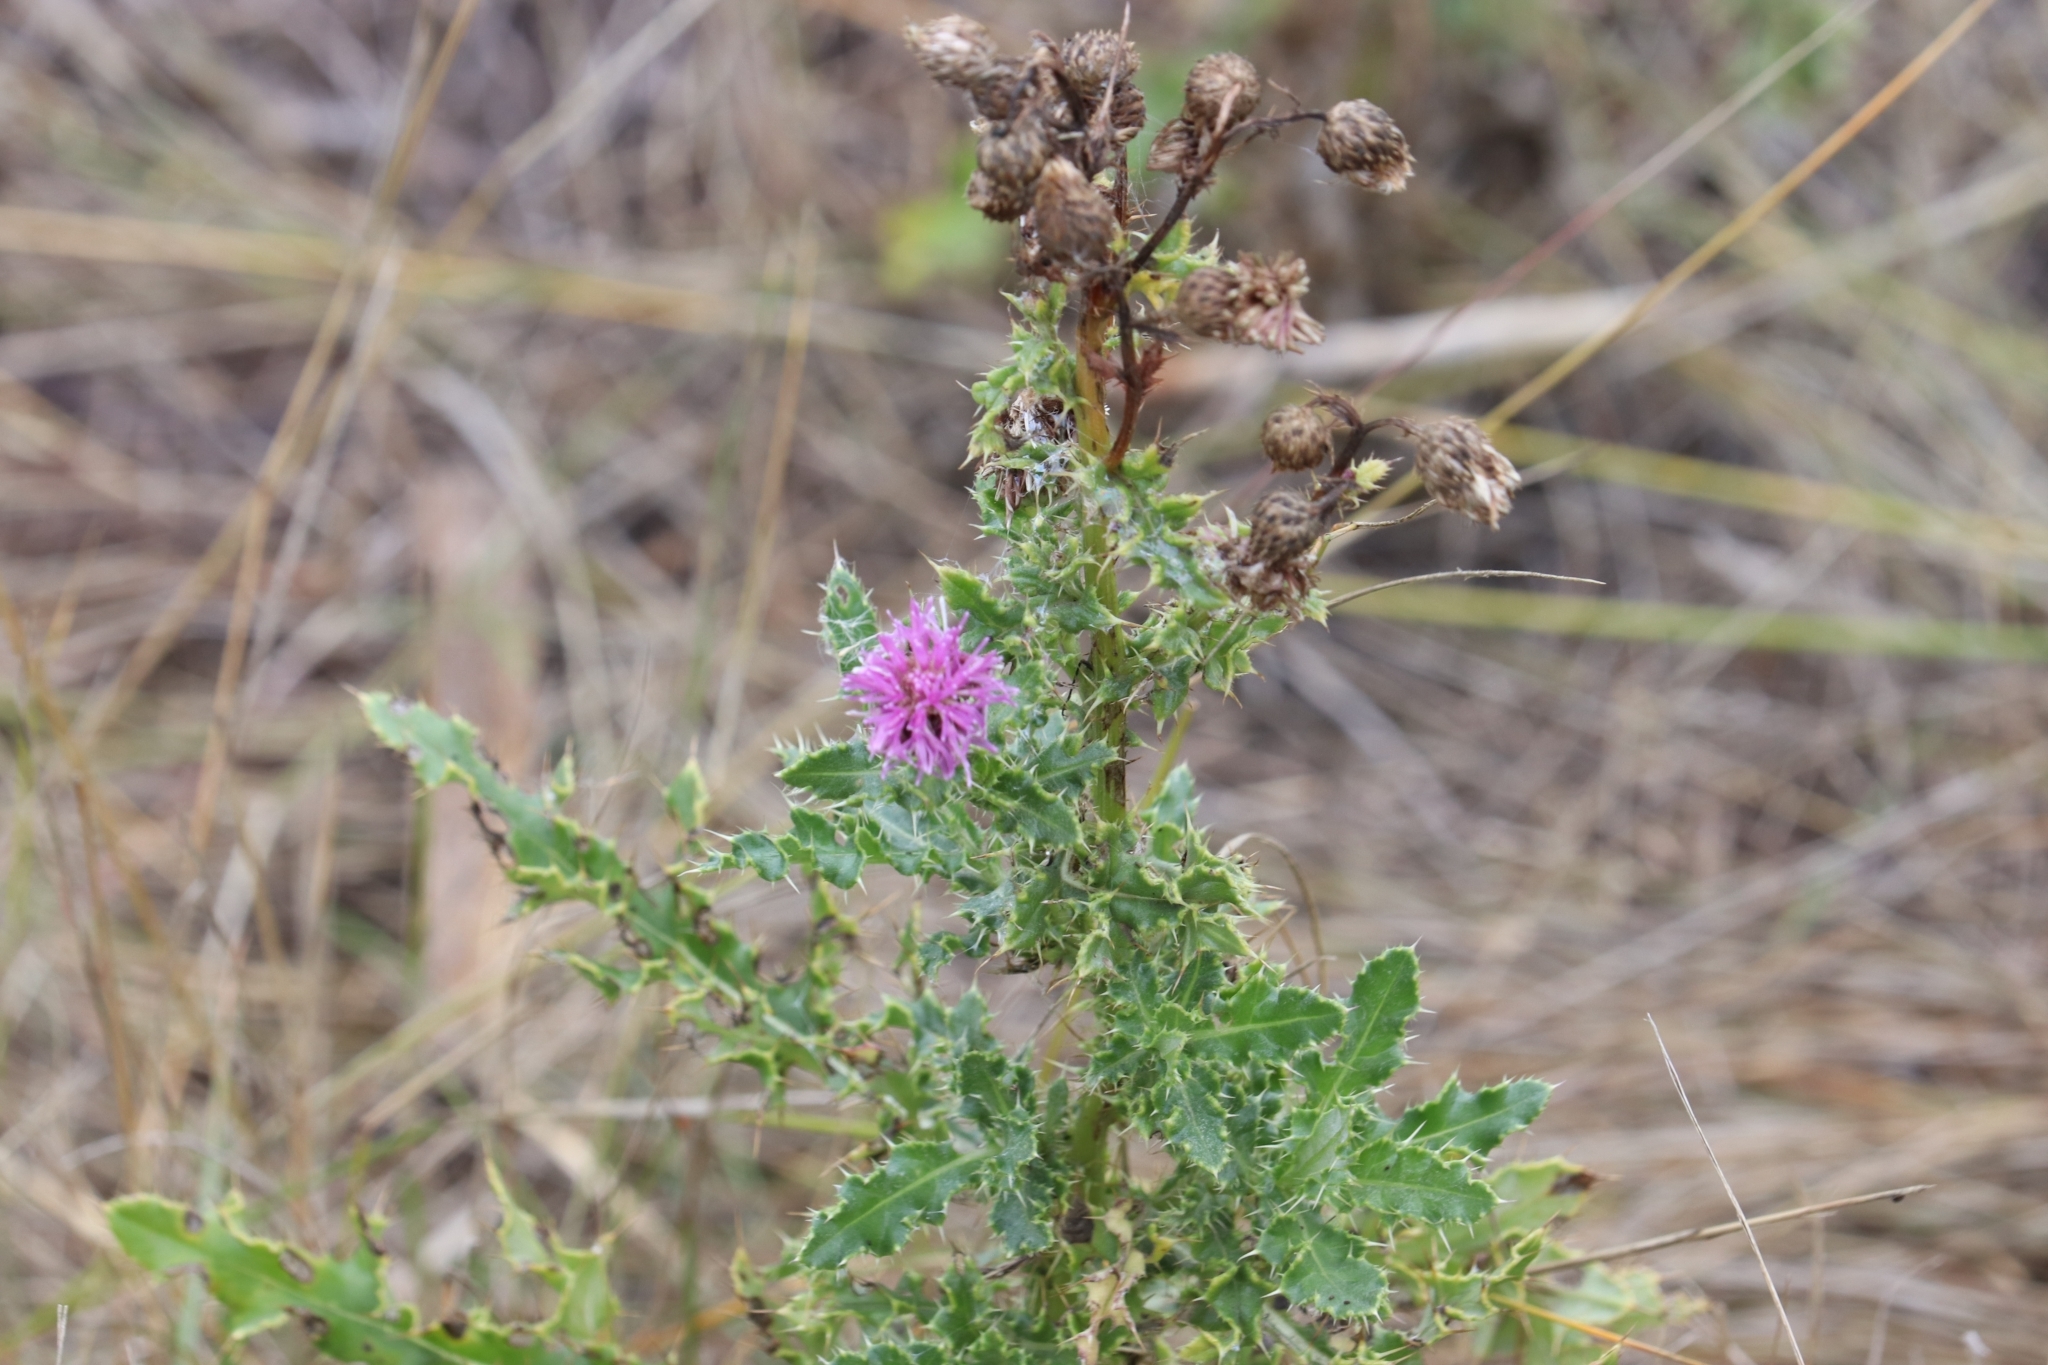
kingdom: Plantae
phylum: Tracheophyta
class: Magnoliopsida
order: Asterales
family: Asteraceae
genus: Cirsium
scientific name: Cirsium arvense
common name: Creeping thistle
